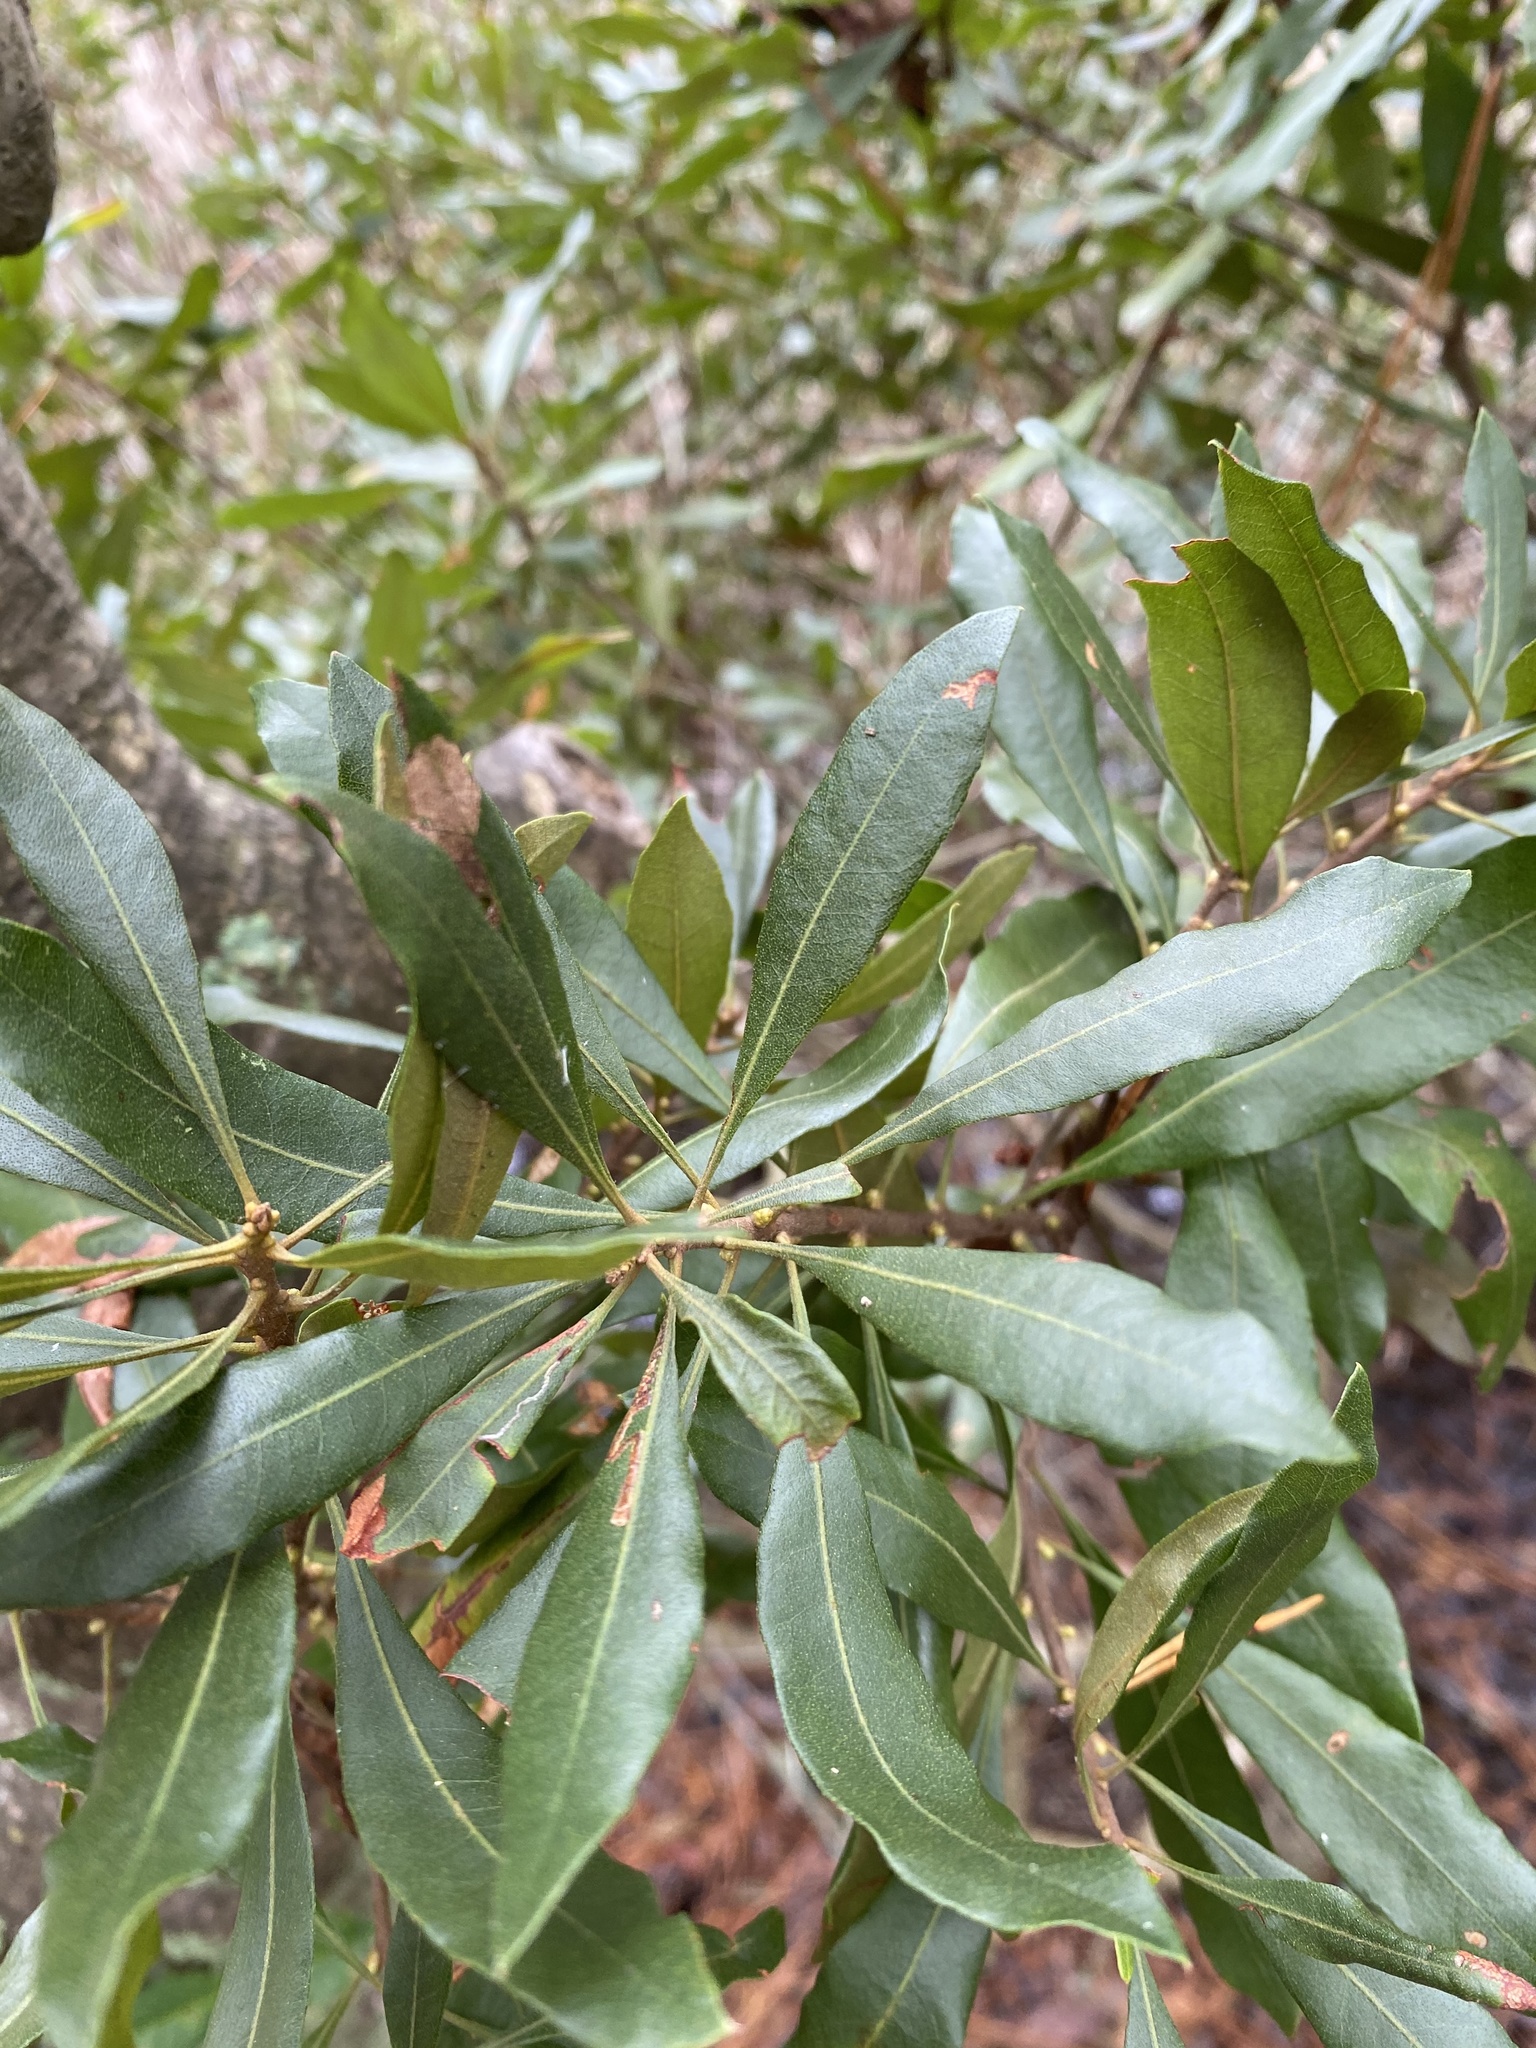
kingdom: Plantae
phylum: Tracheophyta
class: Magnoliopsida
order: Fagales
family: Myricaceae
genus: Morella
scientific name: Morella cerifera
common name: Wax myrtle
